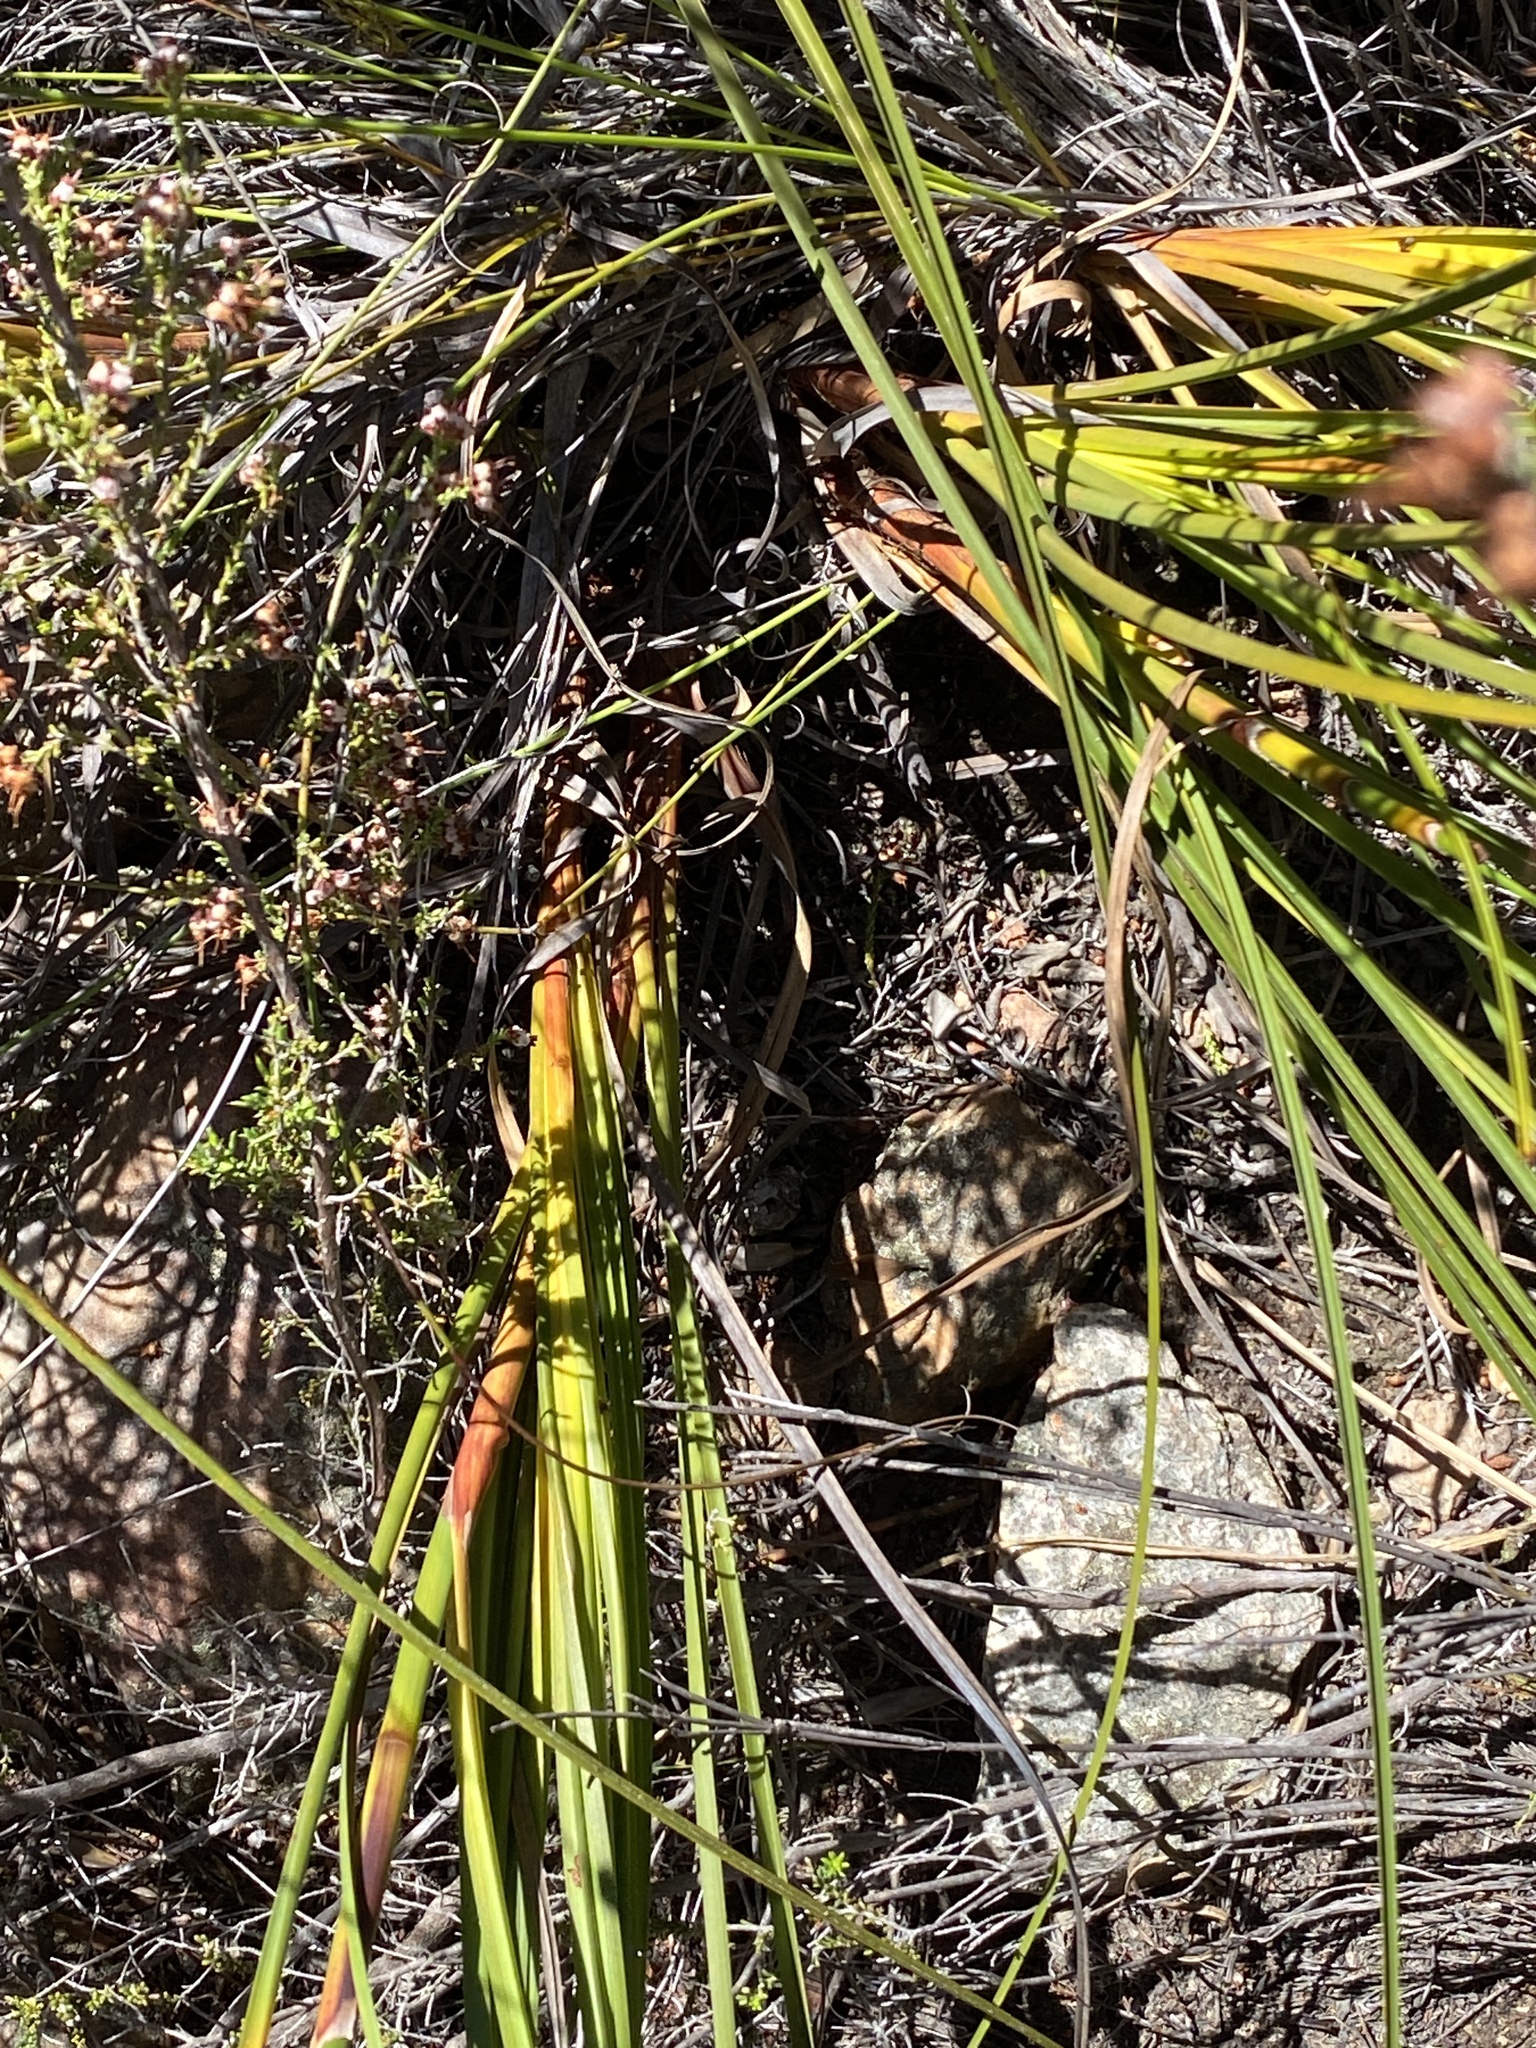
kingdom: Plantae
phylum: Tracheophyta
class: Liliopsida
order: Poales
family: Cyperaceae
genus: Tetraria
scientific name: Tetraria bromoides
